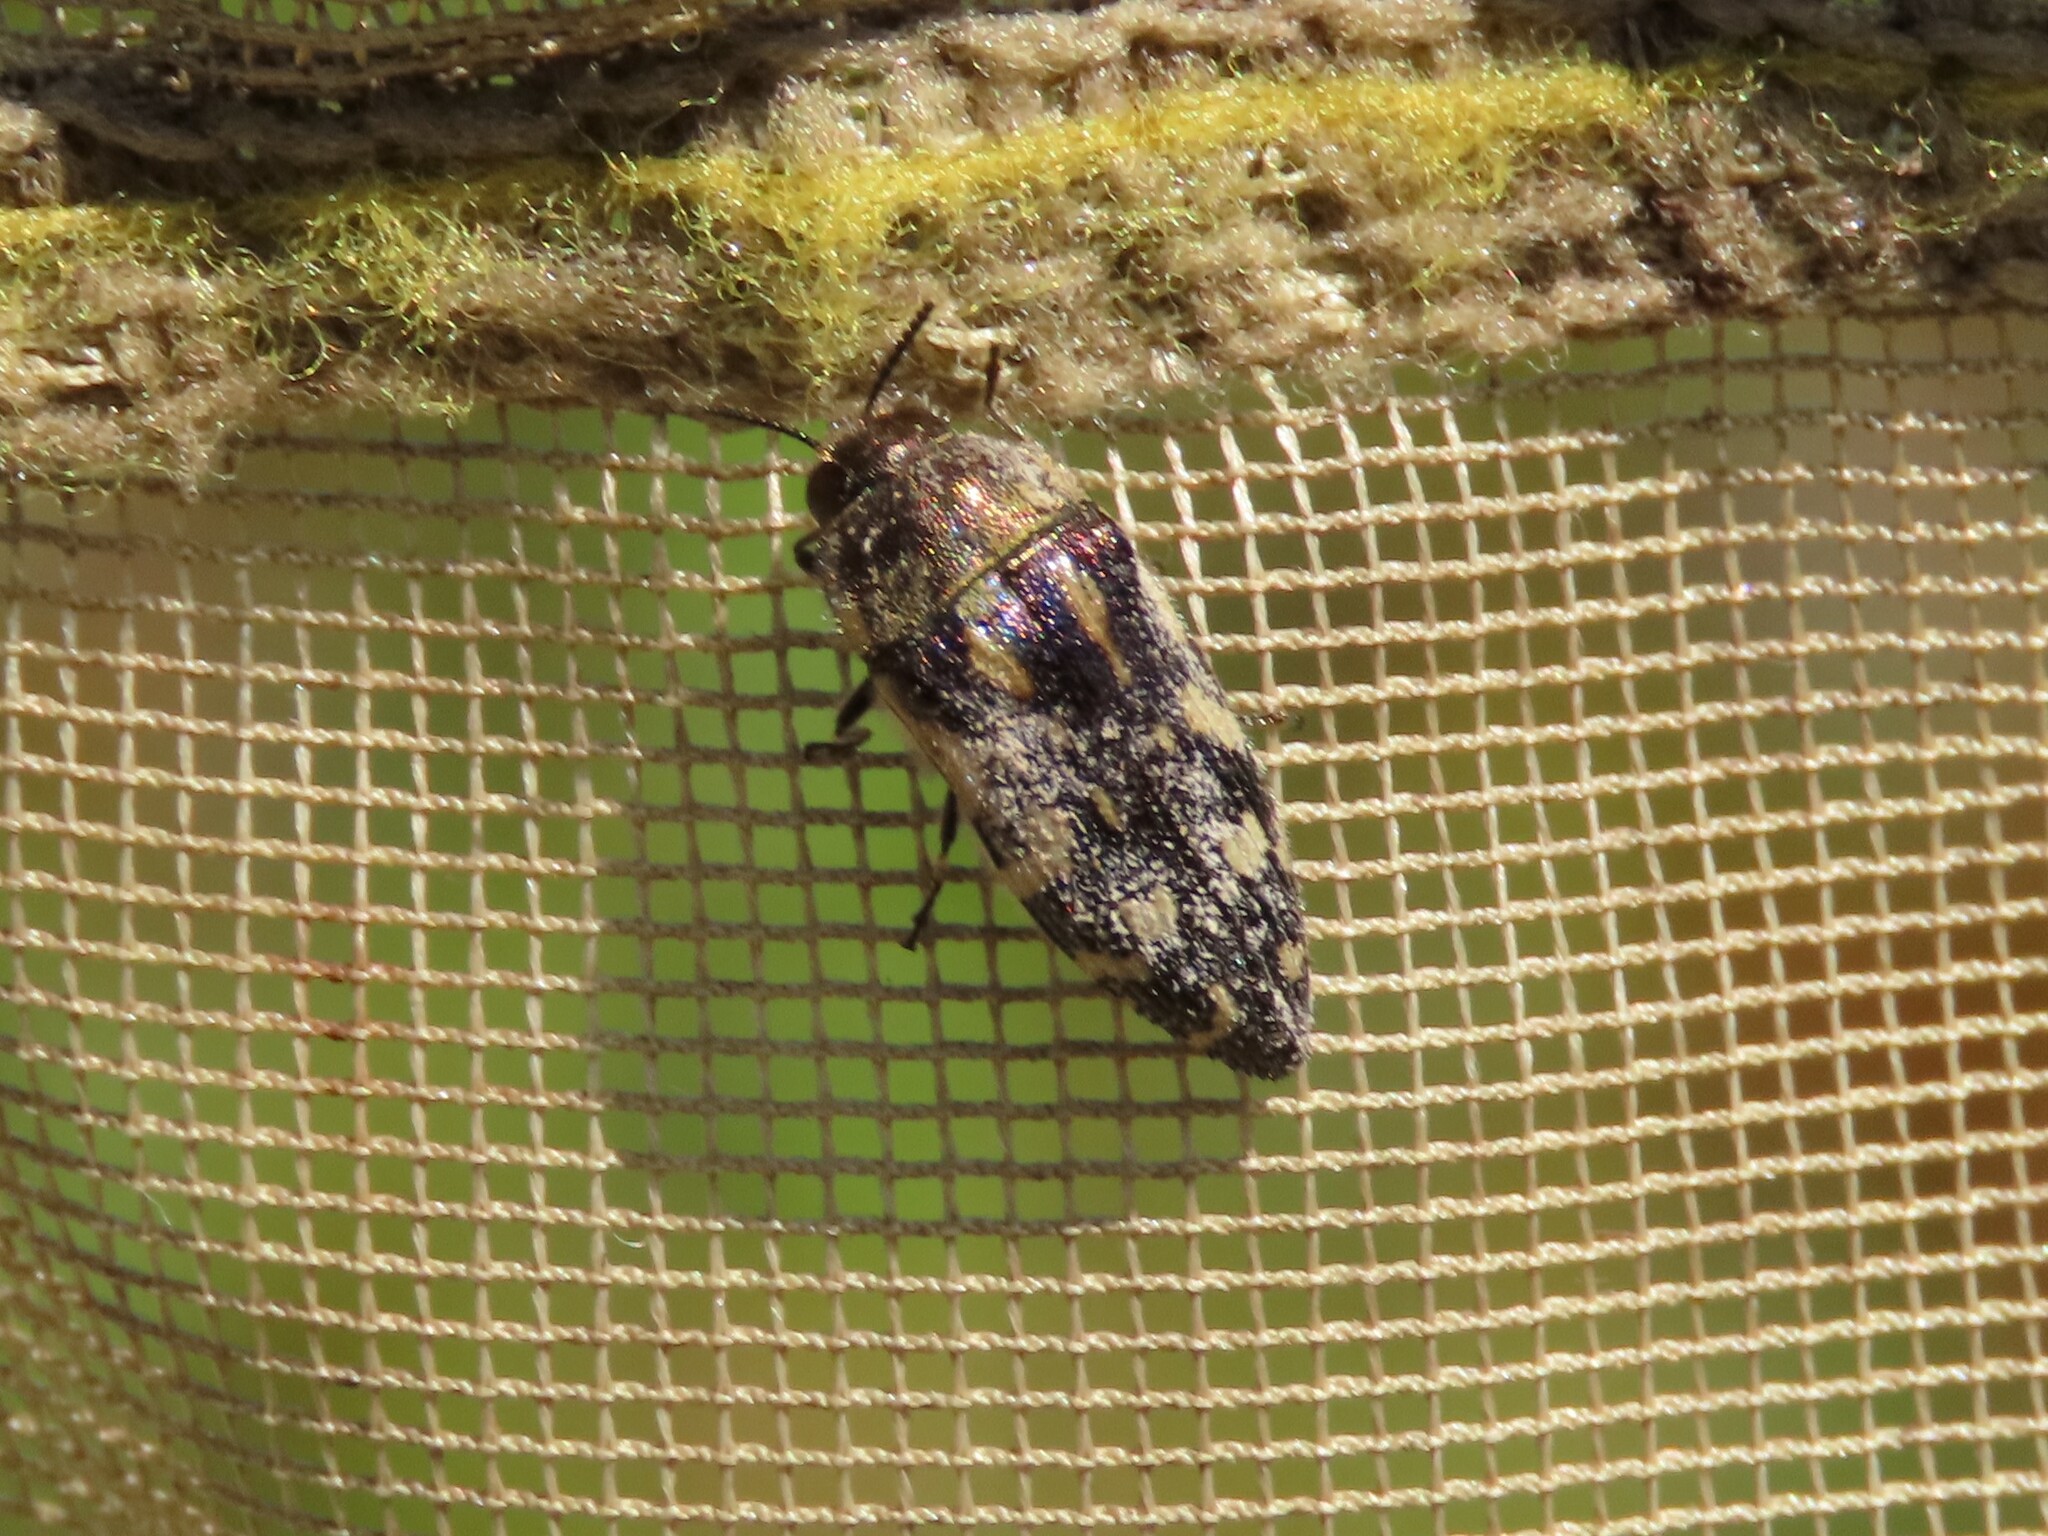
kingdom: Animalia
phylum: Arthropoda
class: Insecta
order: Coleoptera
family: Buprestidae
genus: Acmaeodera
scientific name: Acmaeodera pulchella
